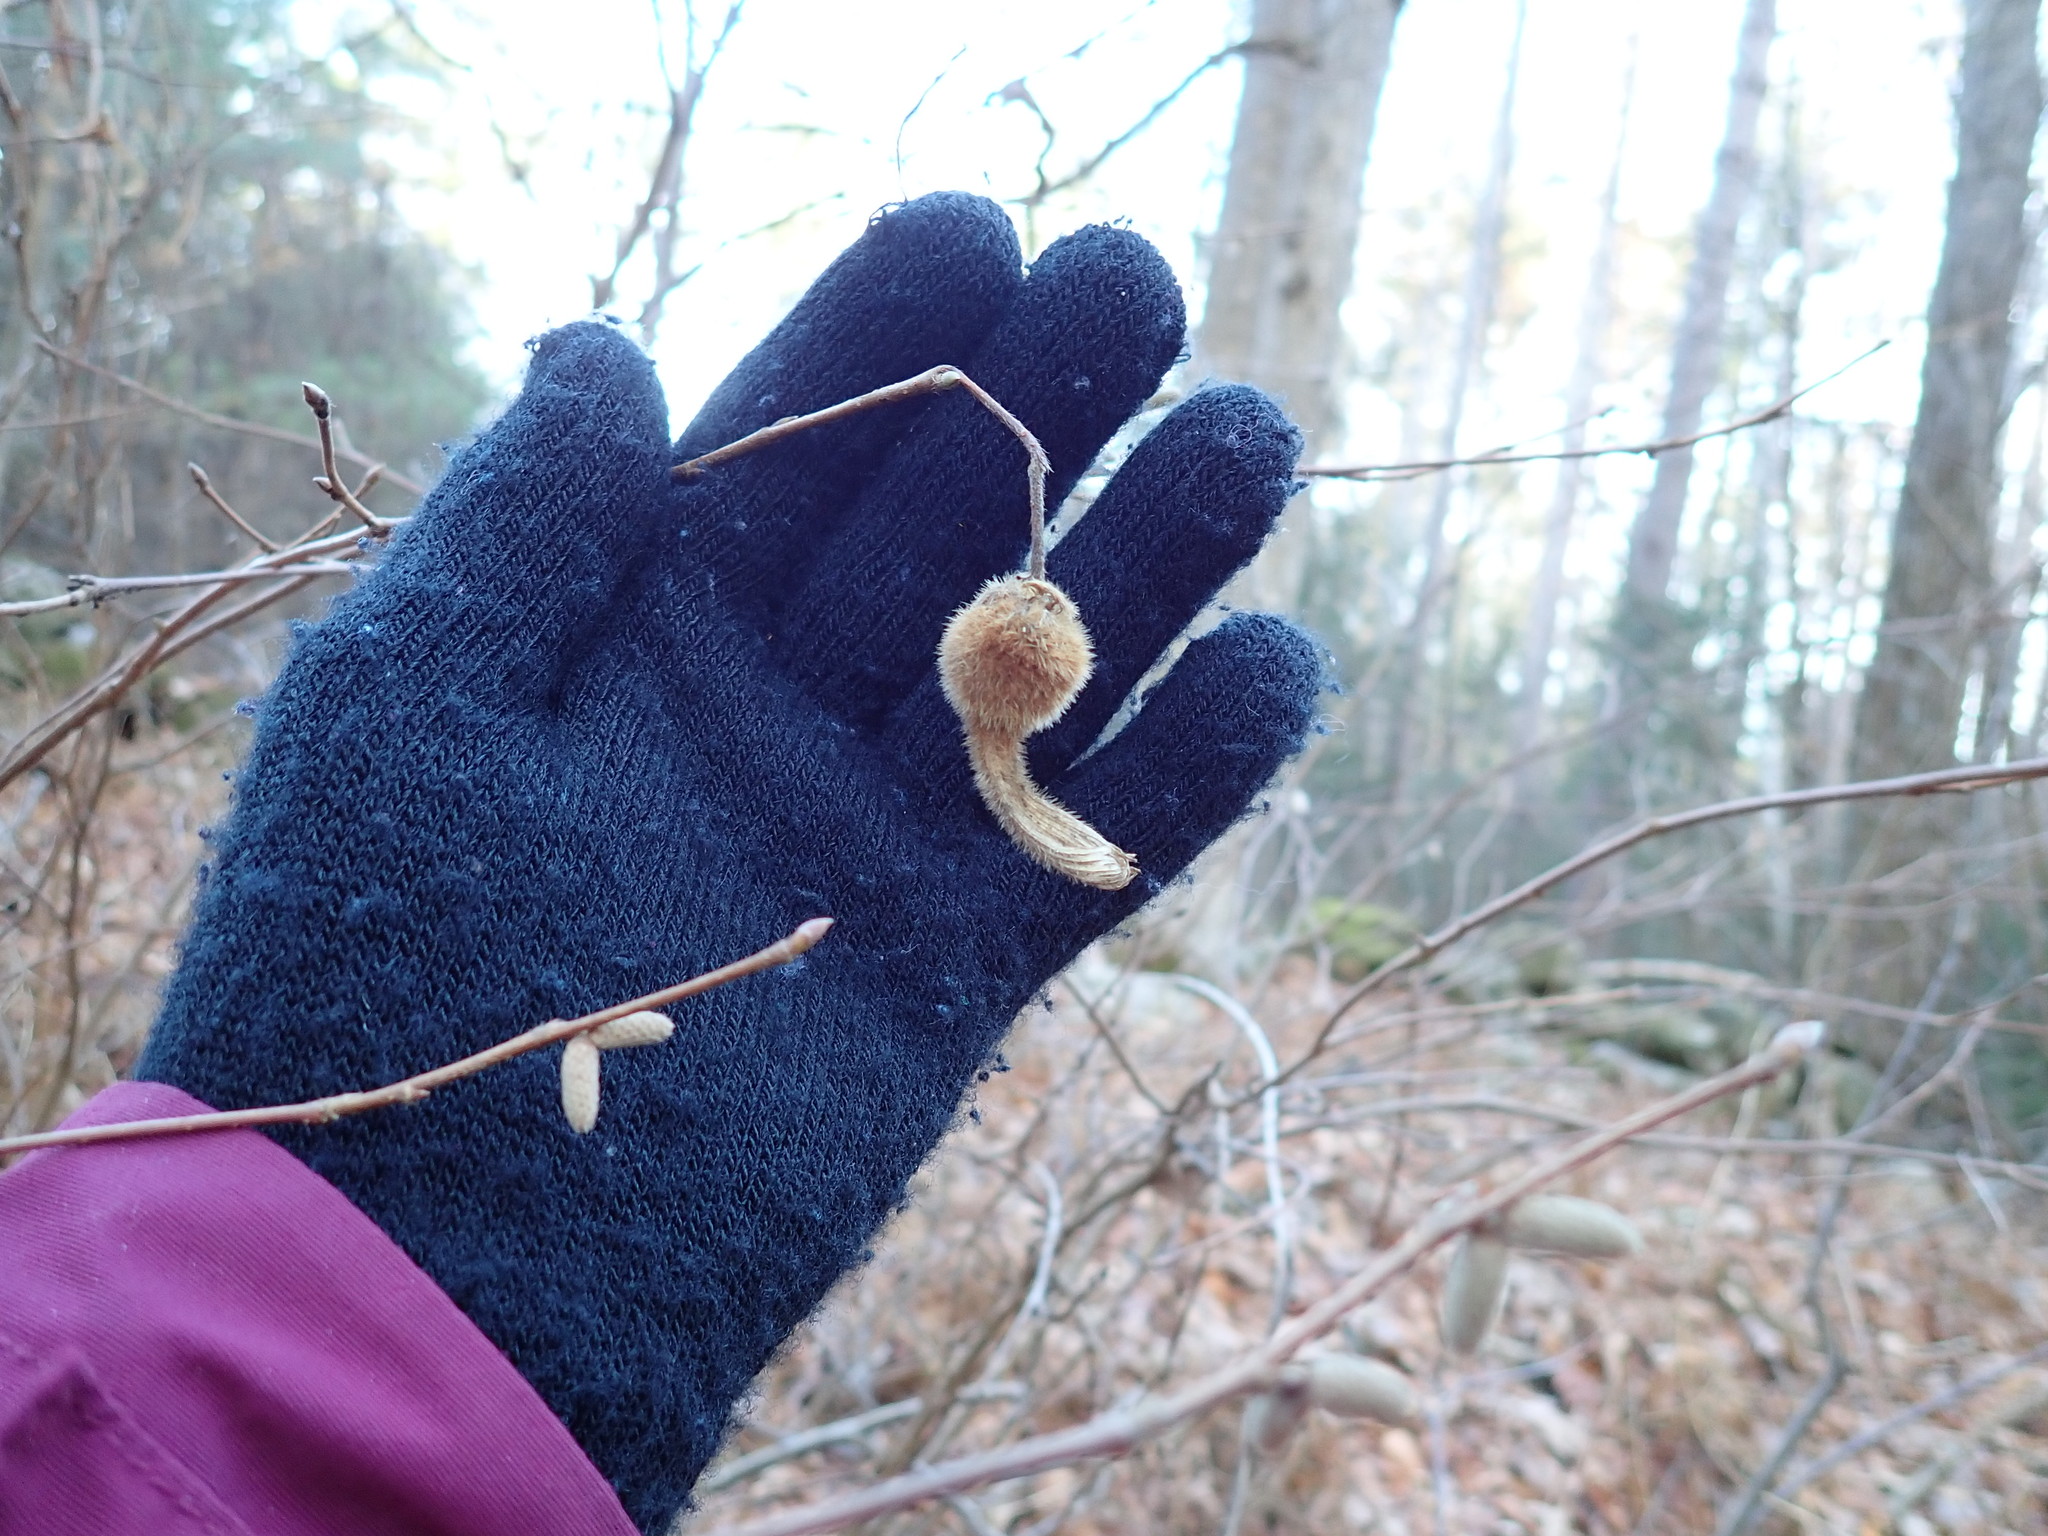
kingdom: Plantae
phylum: Tracheophyta
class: Magnoliopsida
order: Fagales
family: Betulaceae
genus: Corylus
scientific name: Corylus cornuta
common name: Beaked hazel
